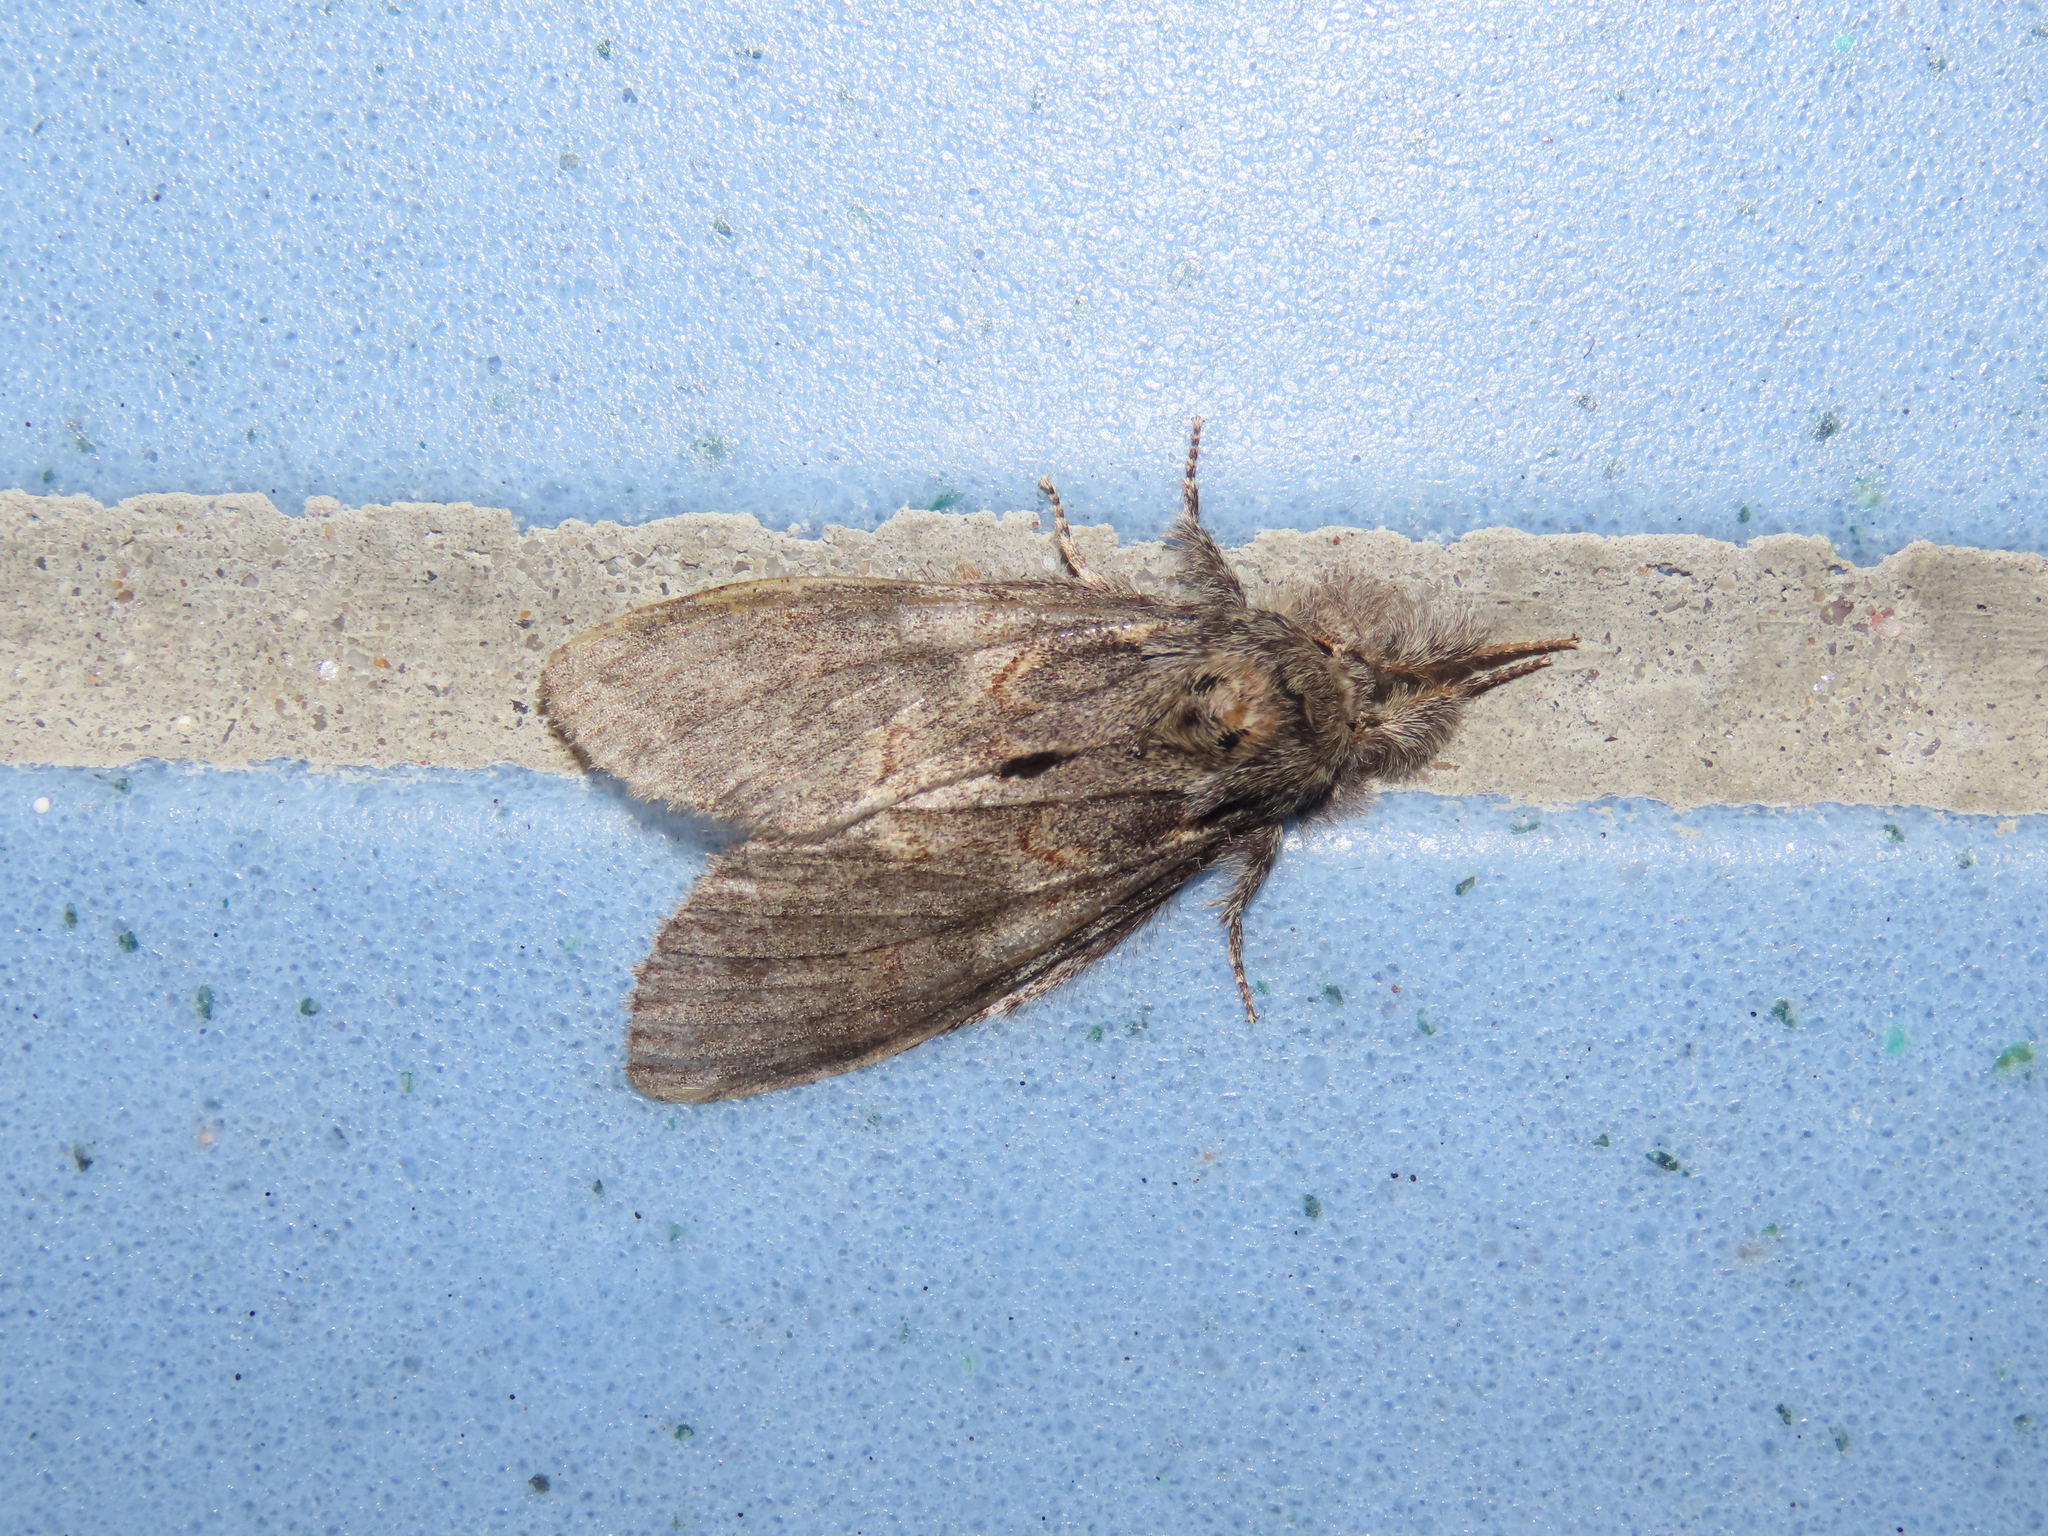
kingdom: Animalia
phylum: Arthropoda
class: Insecta
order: Lepidoptera
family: Notodontidae
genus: Peridea
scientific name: Peridea angulosa
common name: Angulose prominent
